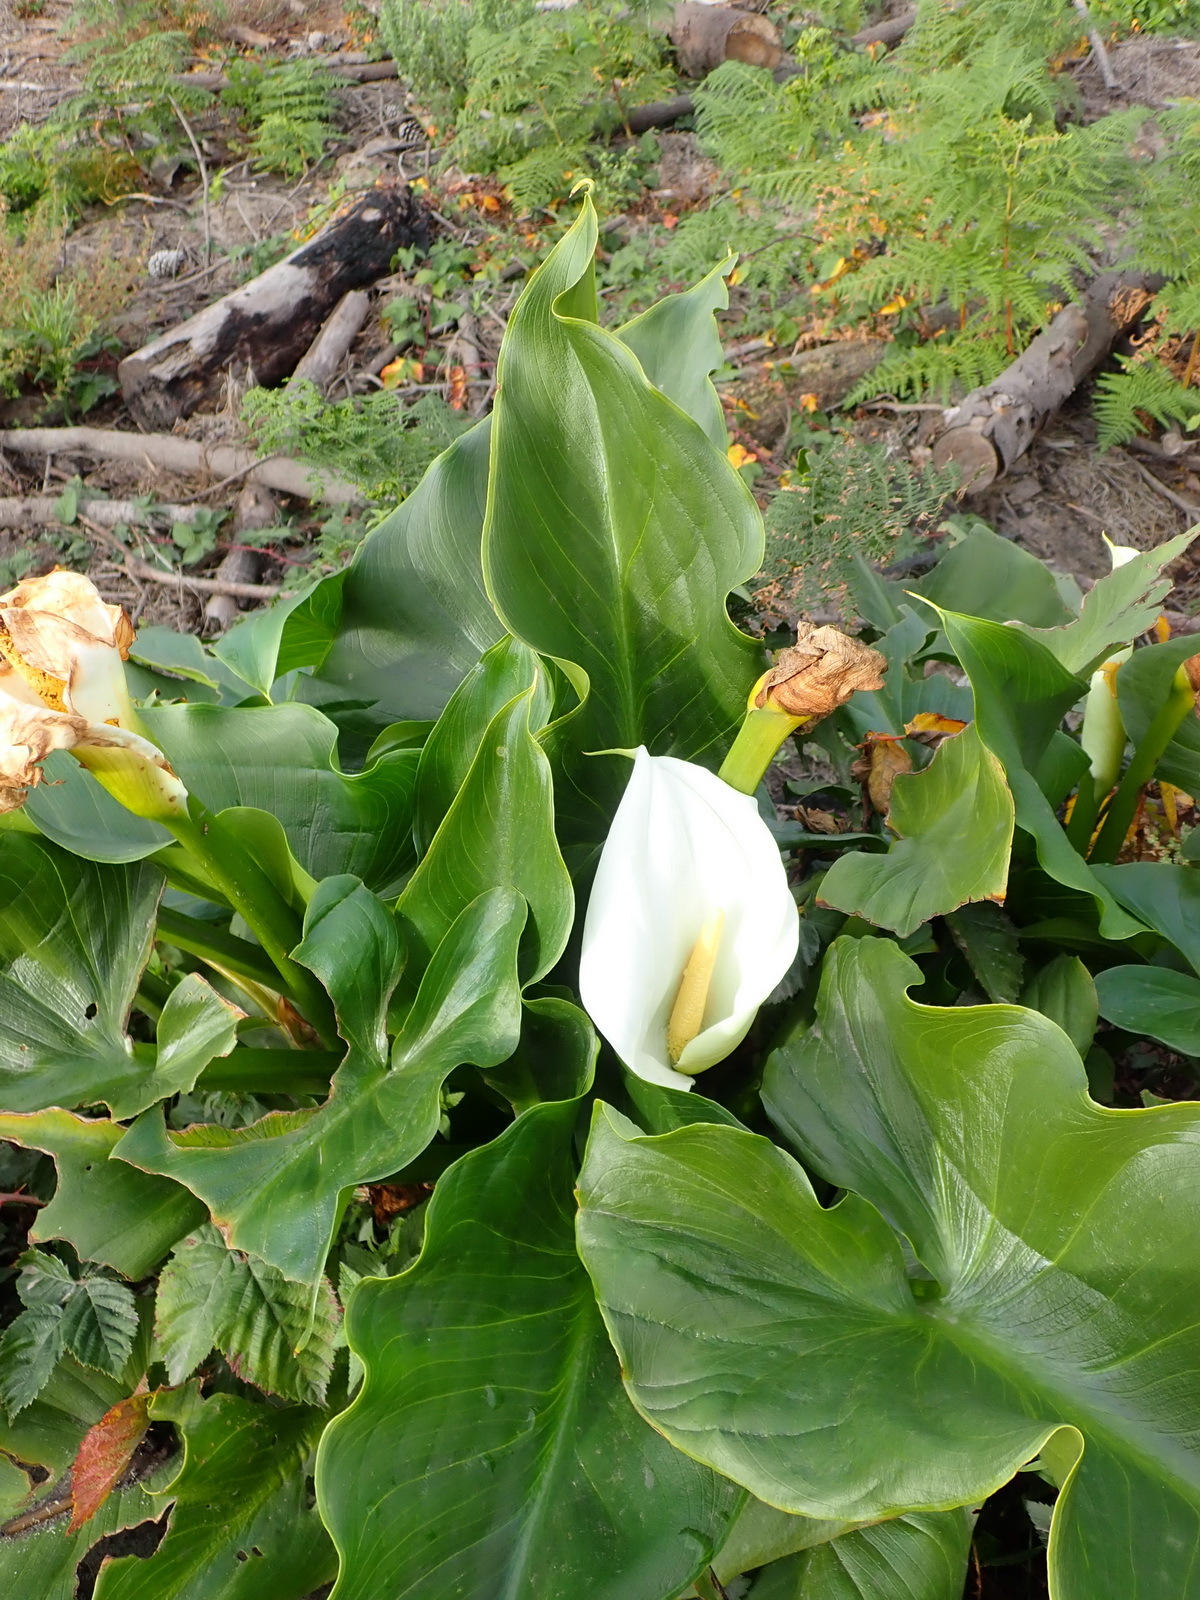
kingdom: Plantae
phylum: Tracheophyta
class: Liliopsida
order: Alismatales
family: Araceae
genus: Zantedeschia
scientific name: Zantedeschia aethiopica
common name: Altar-lily
